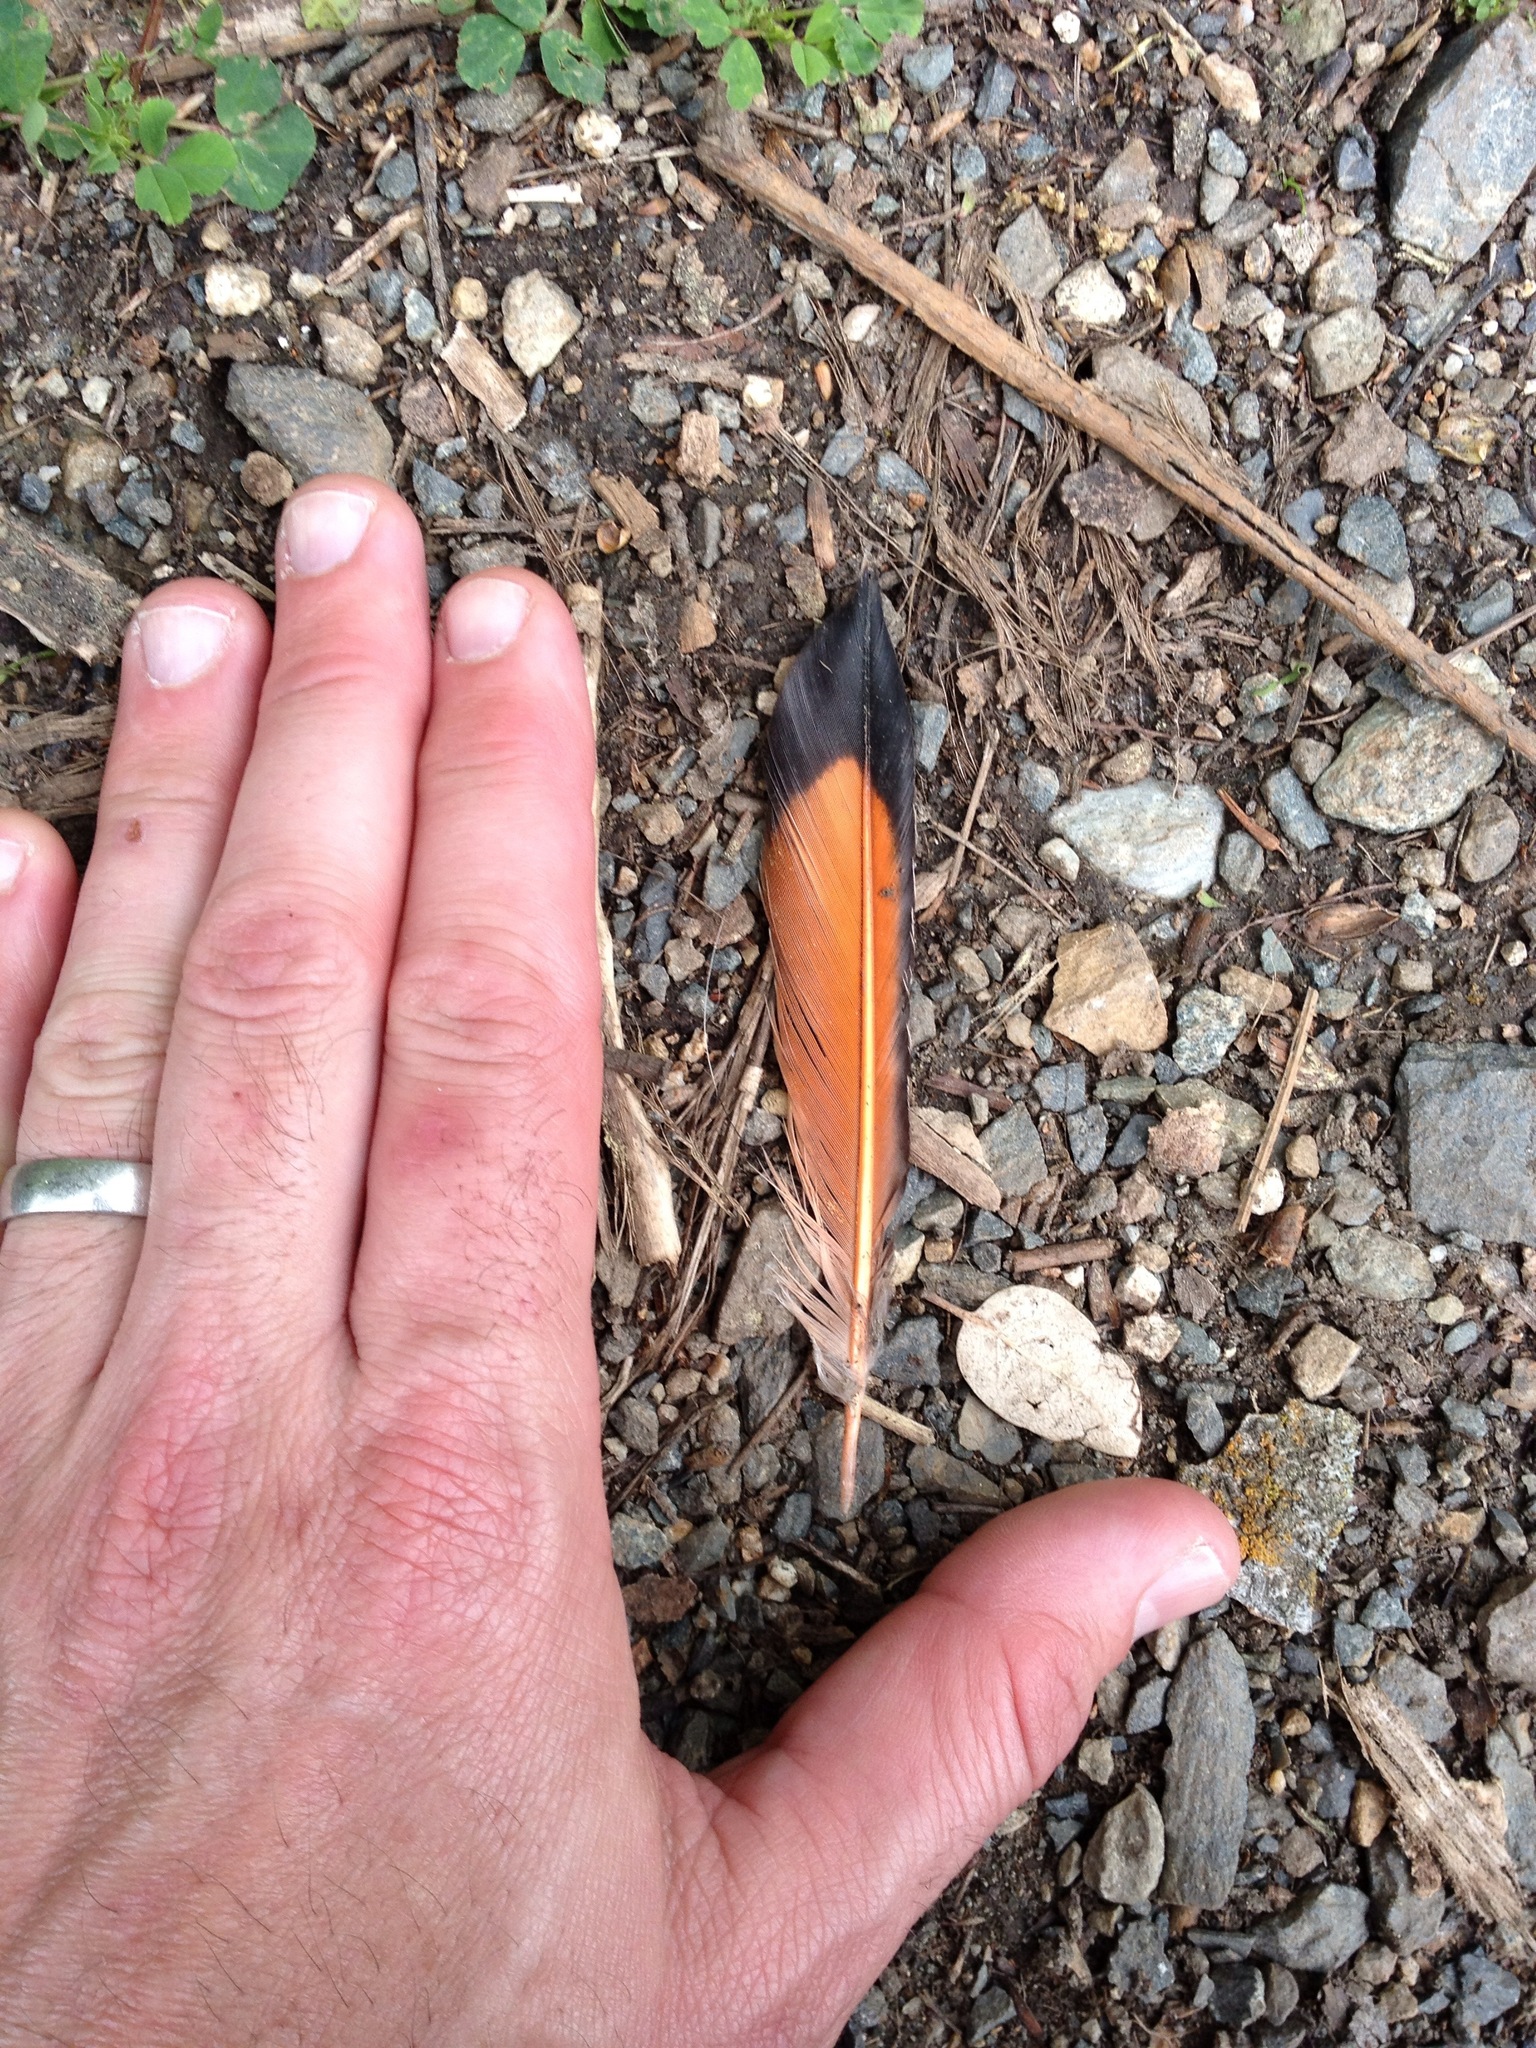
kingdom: Animalia
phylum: Chordata
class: Aves
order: Piciformes
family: Picidae
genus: Colaptes
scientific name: Colaptes auratus
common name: Northern flicker
